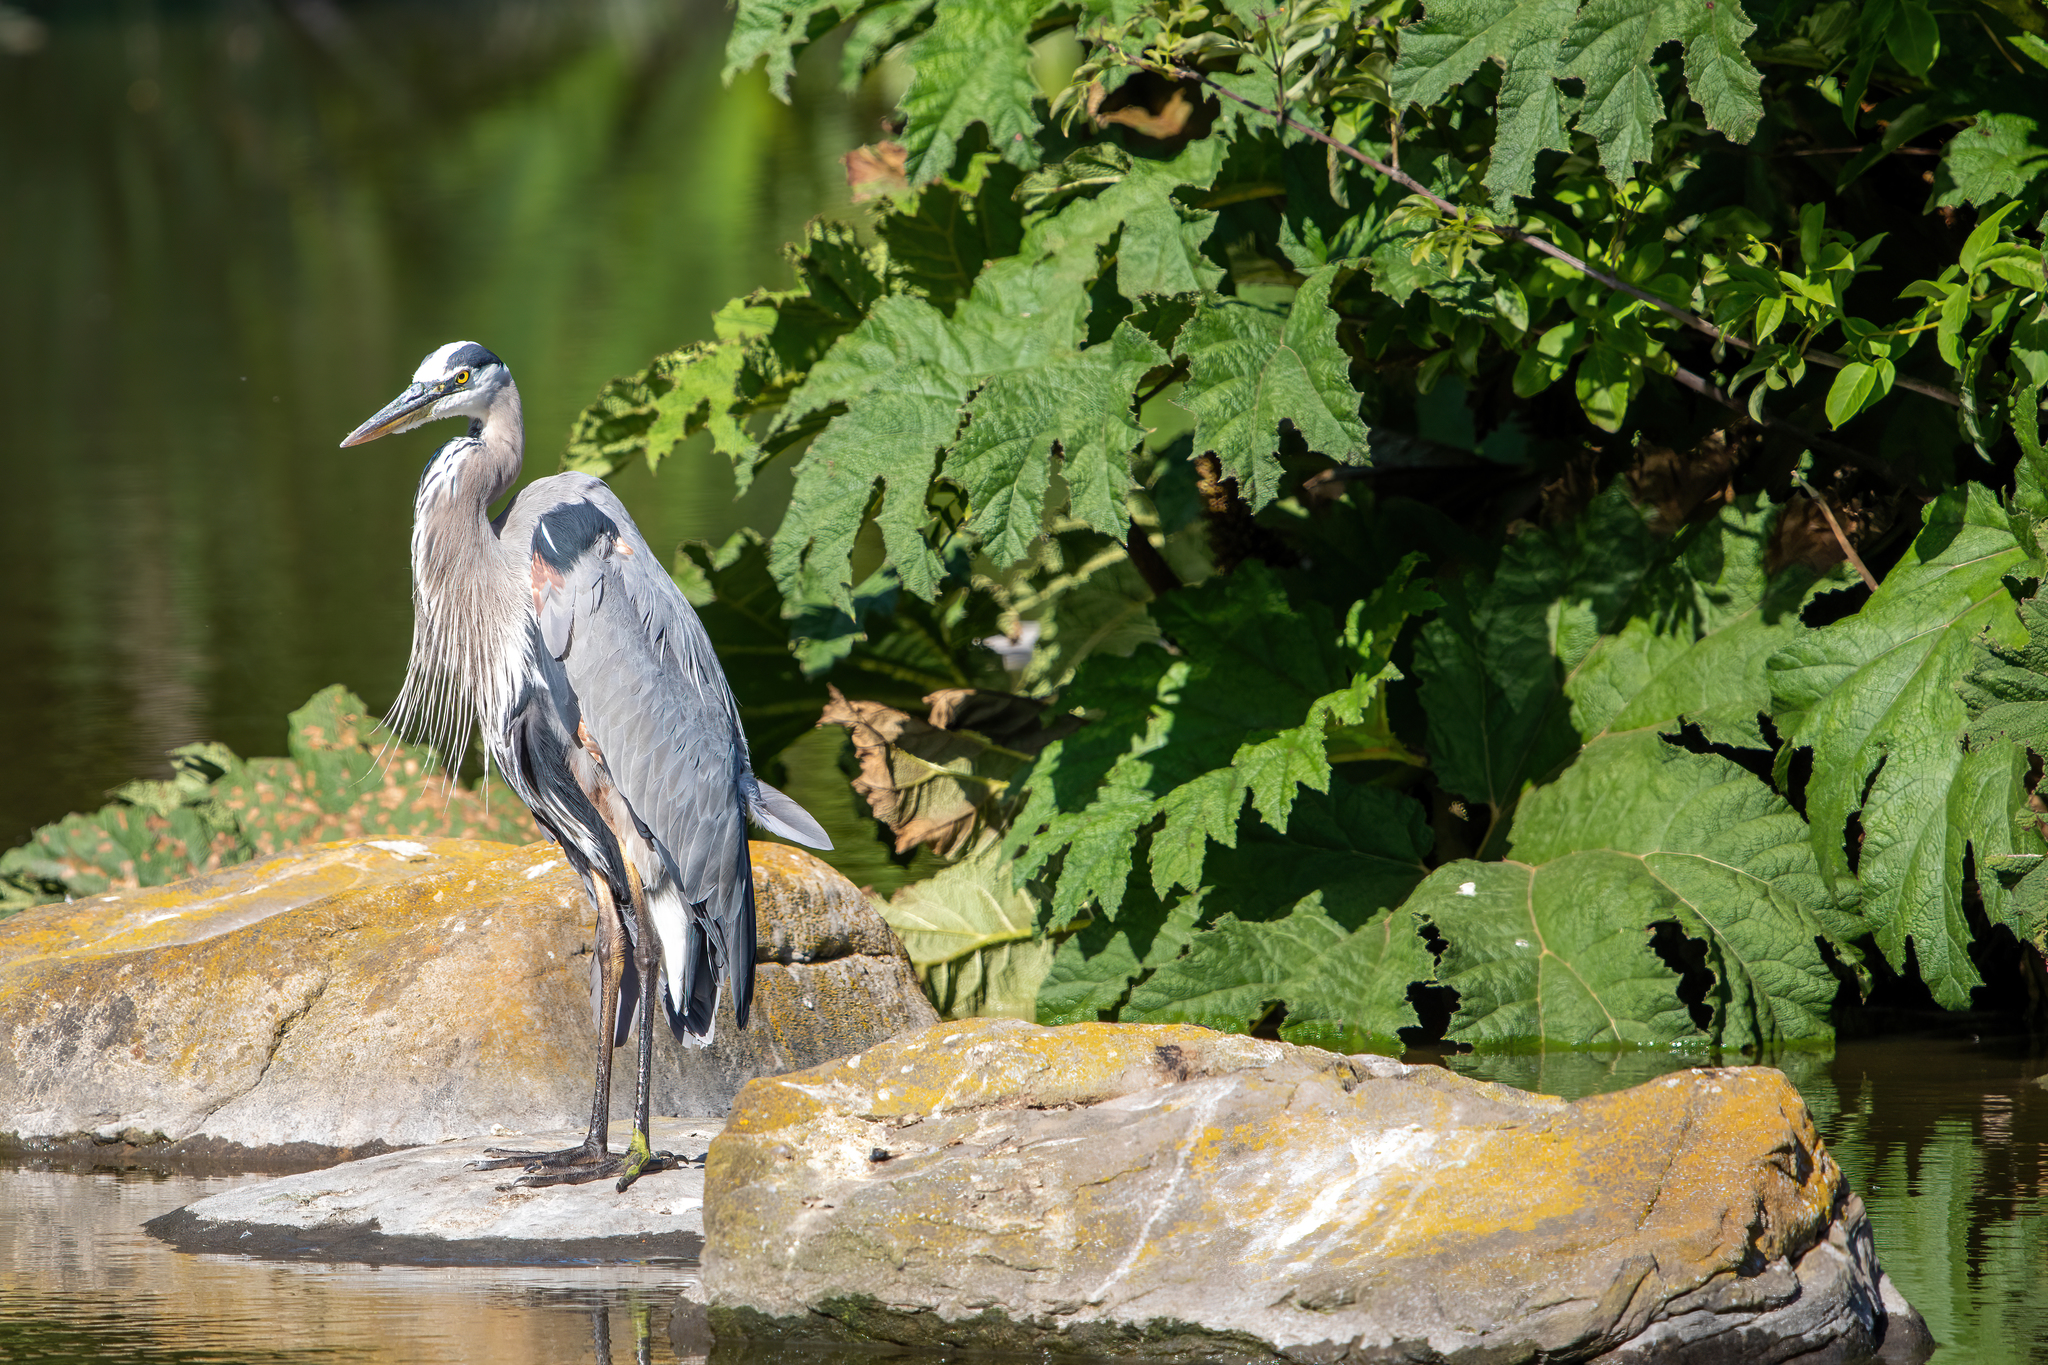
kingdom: Animalia
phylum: Chordata
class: Aves
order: Pelecaniformes
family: Ardeidae
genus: Ardea
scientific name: Ardea herodias
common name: Great blue heron
